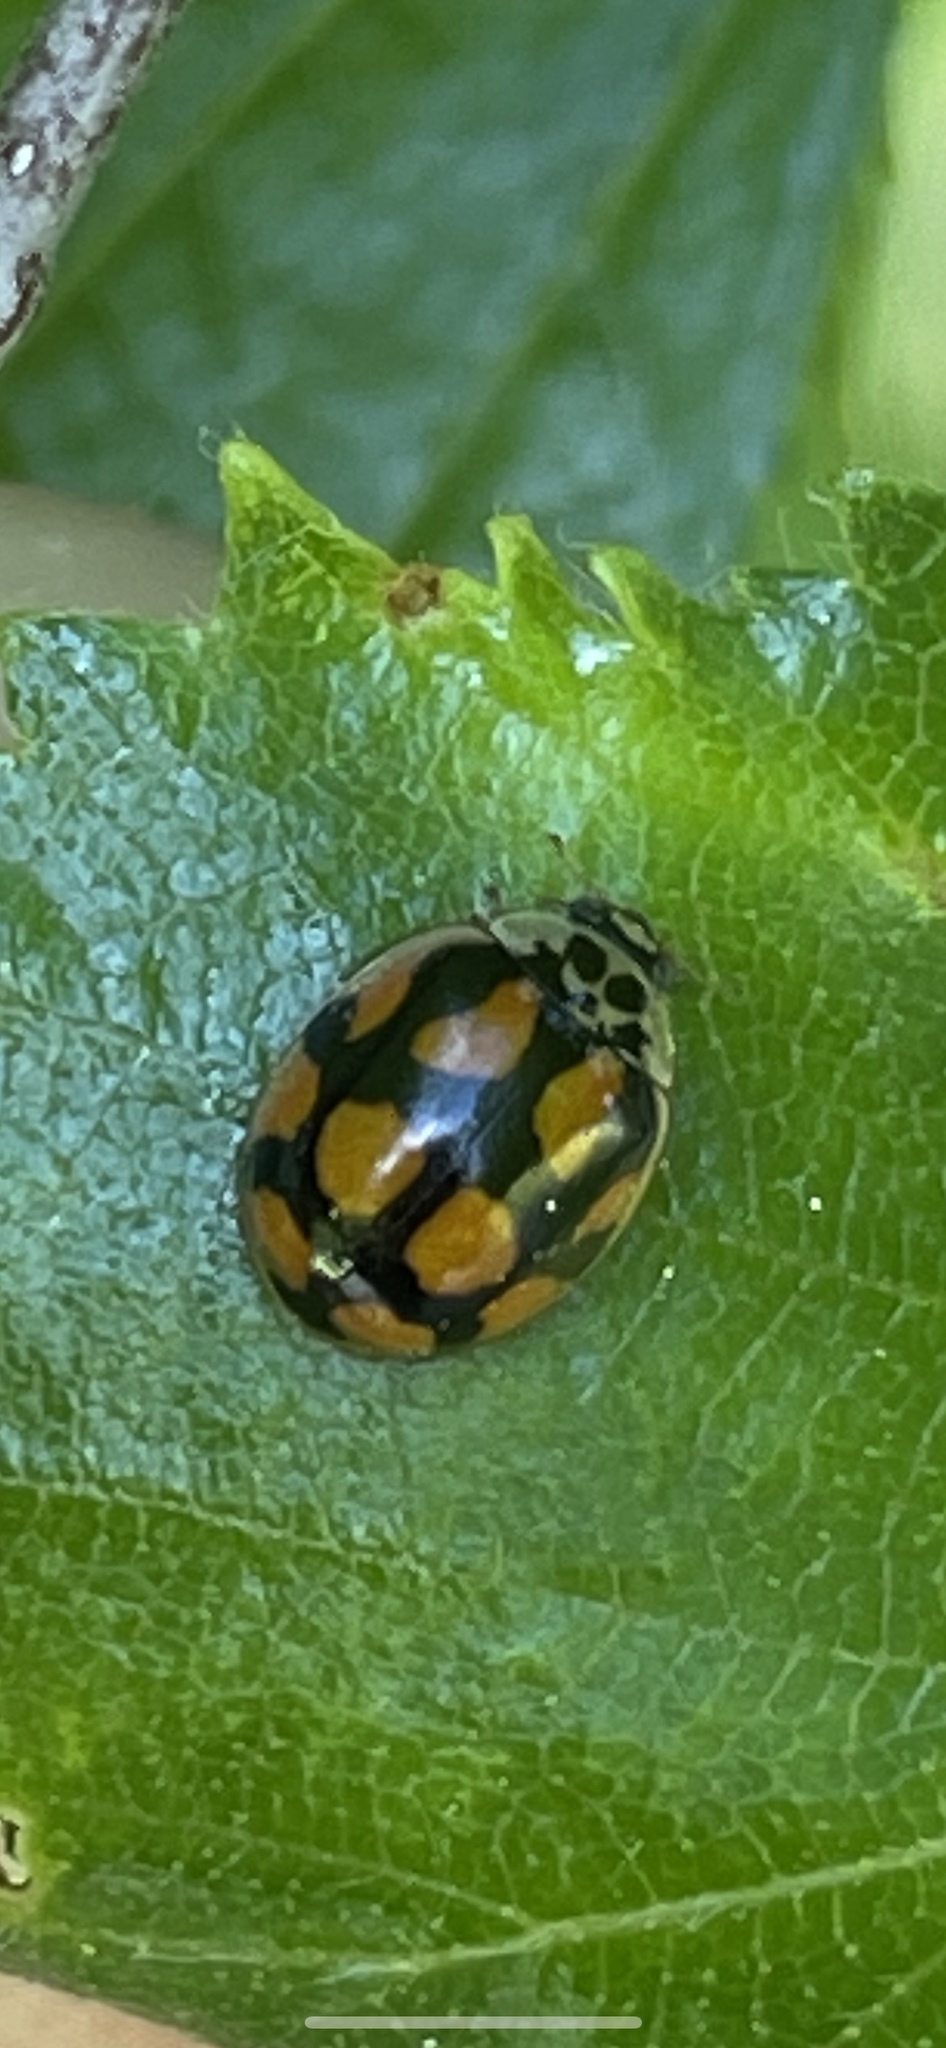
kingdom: Animalia
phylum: Arthropoda
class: Insecta
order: Coleoptera
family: Coccinellidae
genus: Adalia
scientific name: Adalia decempunctata
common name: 10-spot ladybird
